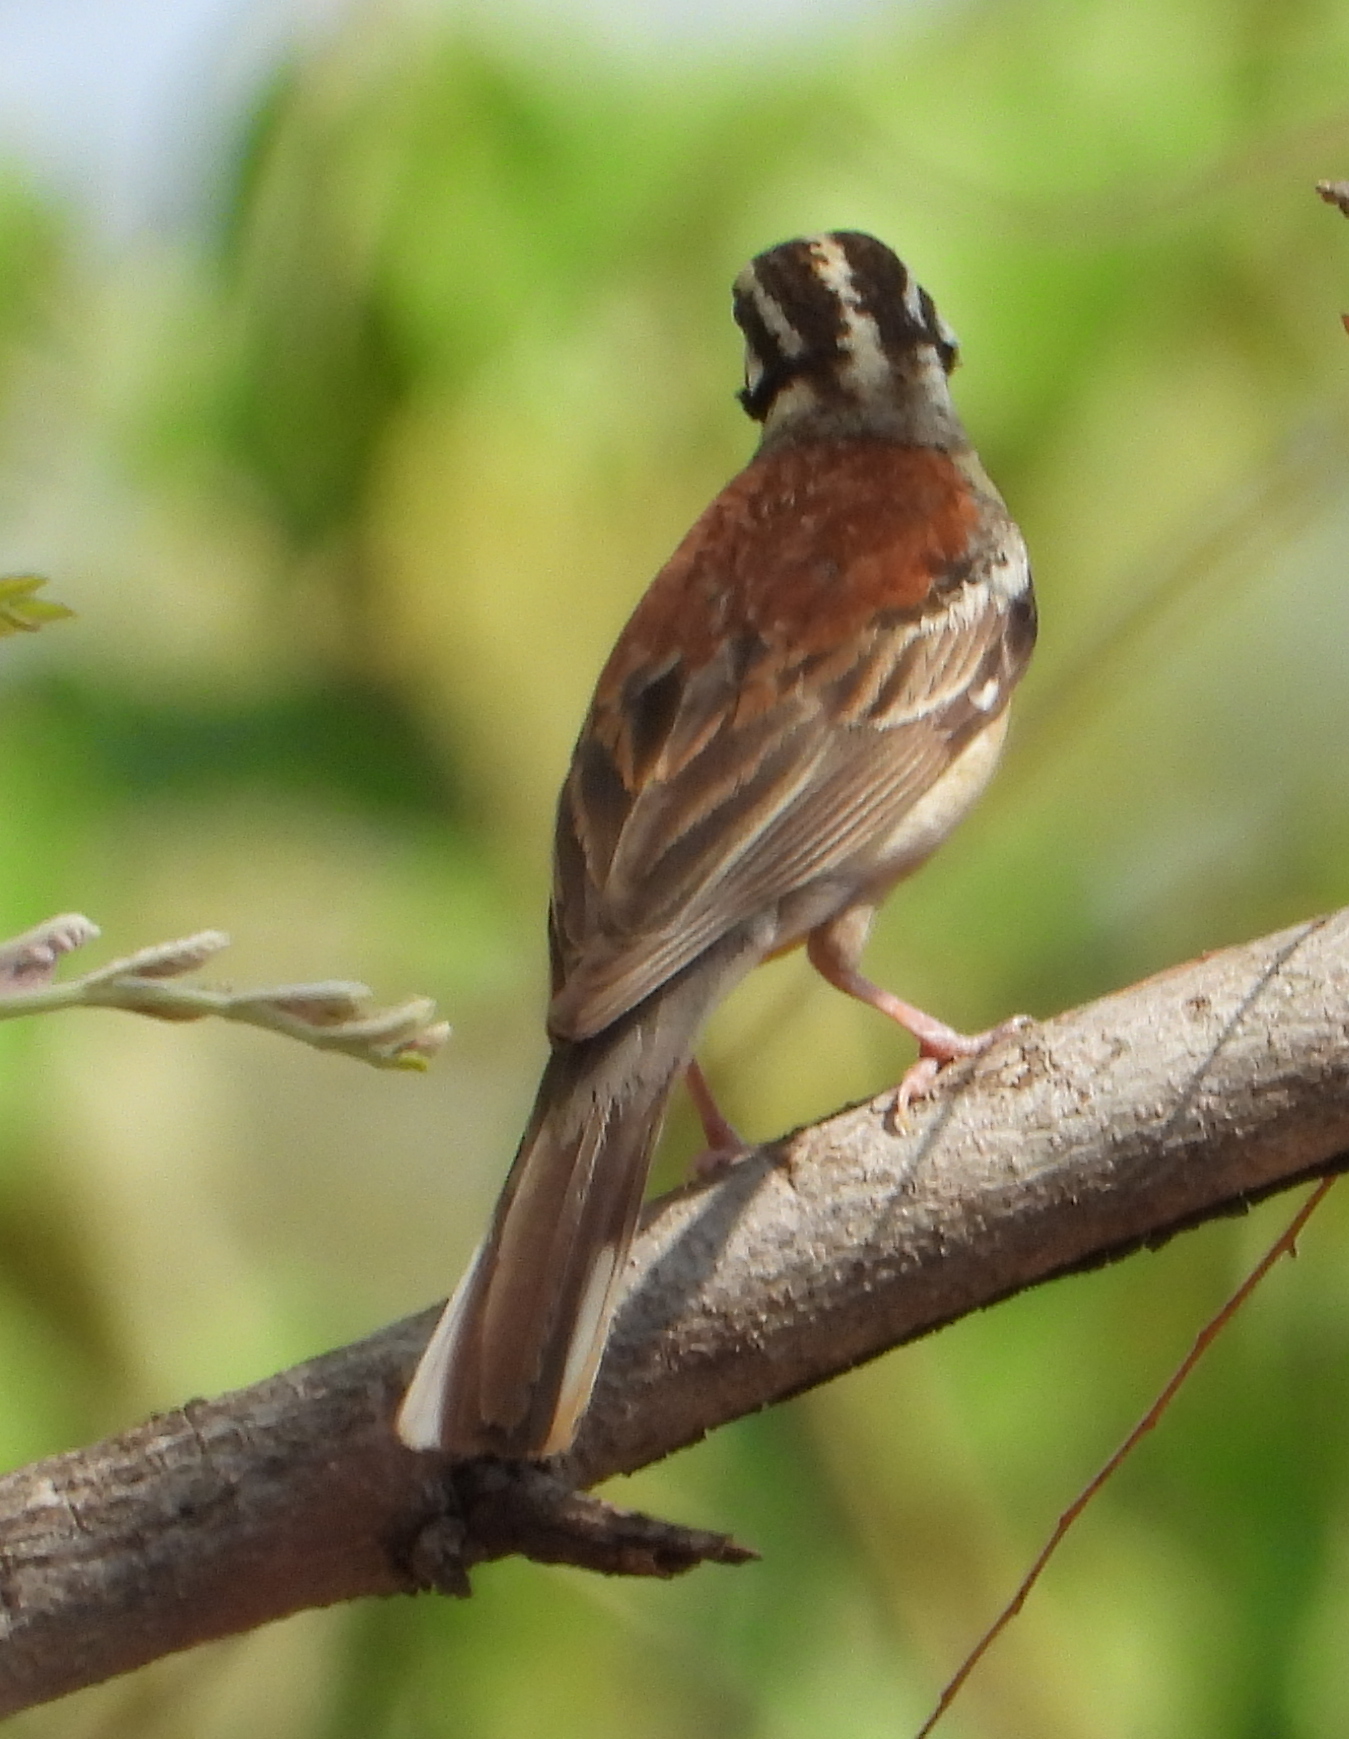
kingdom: Animalia
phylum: Chordata
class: Aves
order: Passeriformes
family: Emberizidae
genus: Emberiza
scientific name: Emberiza flaviventris
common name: Golden-breasted bunting
